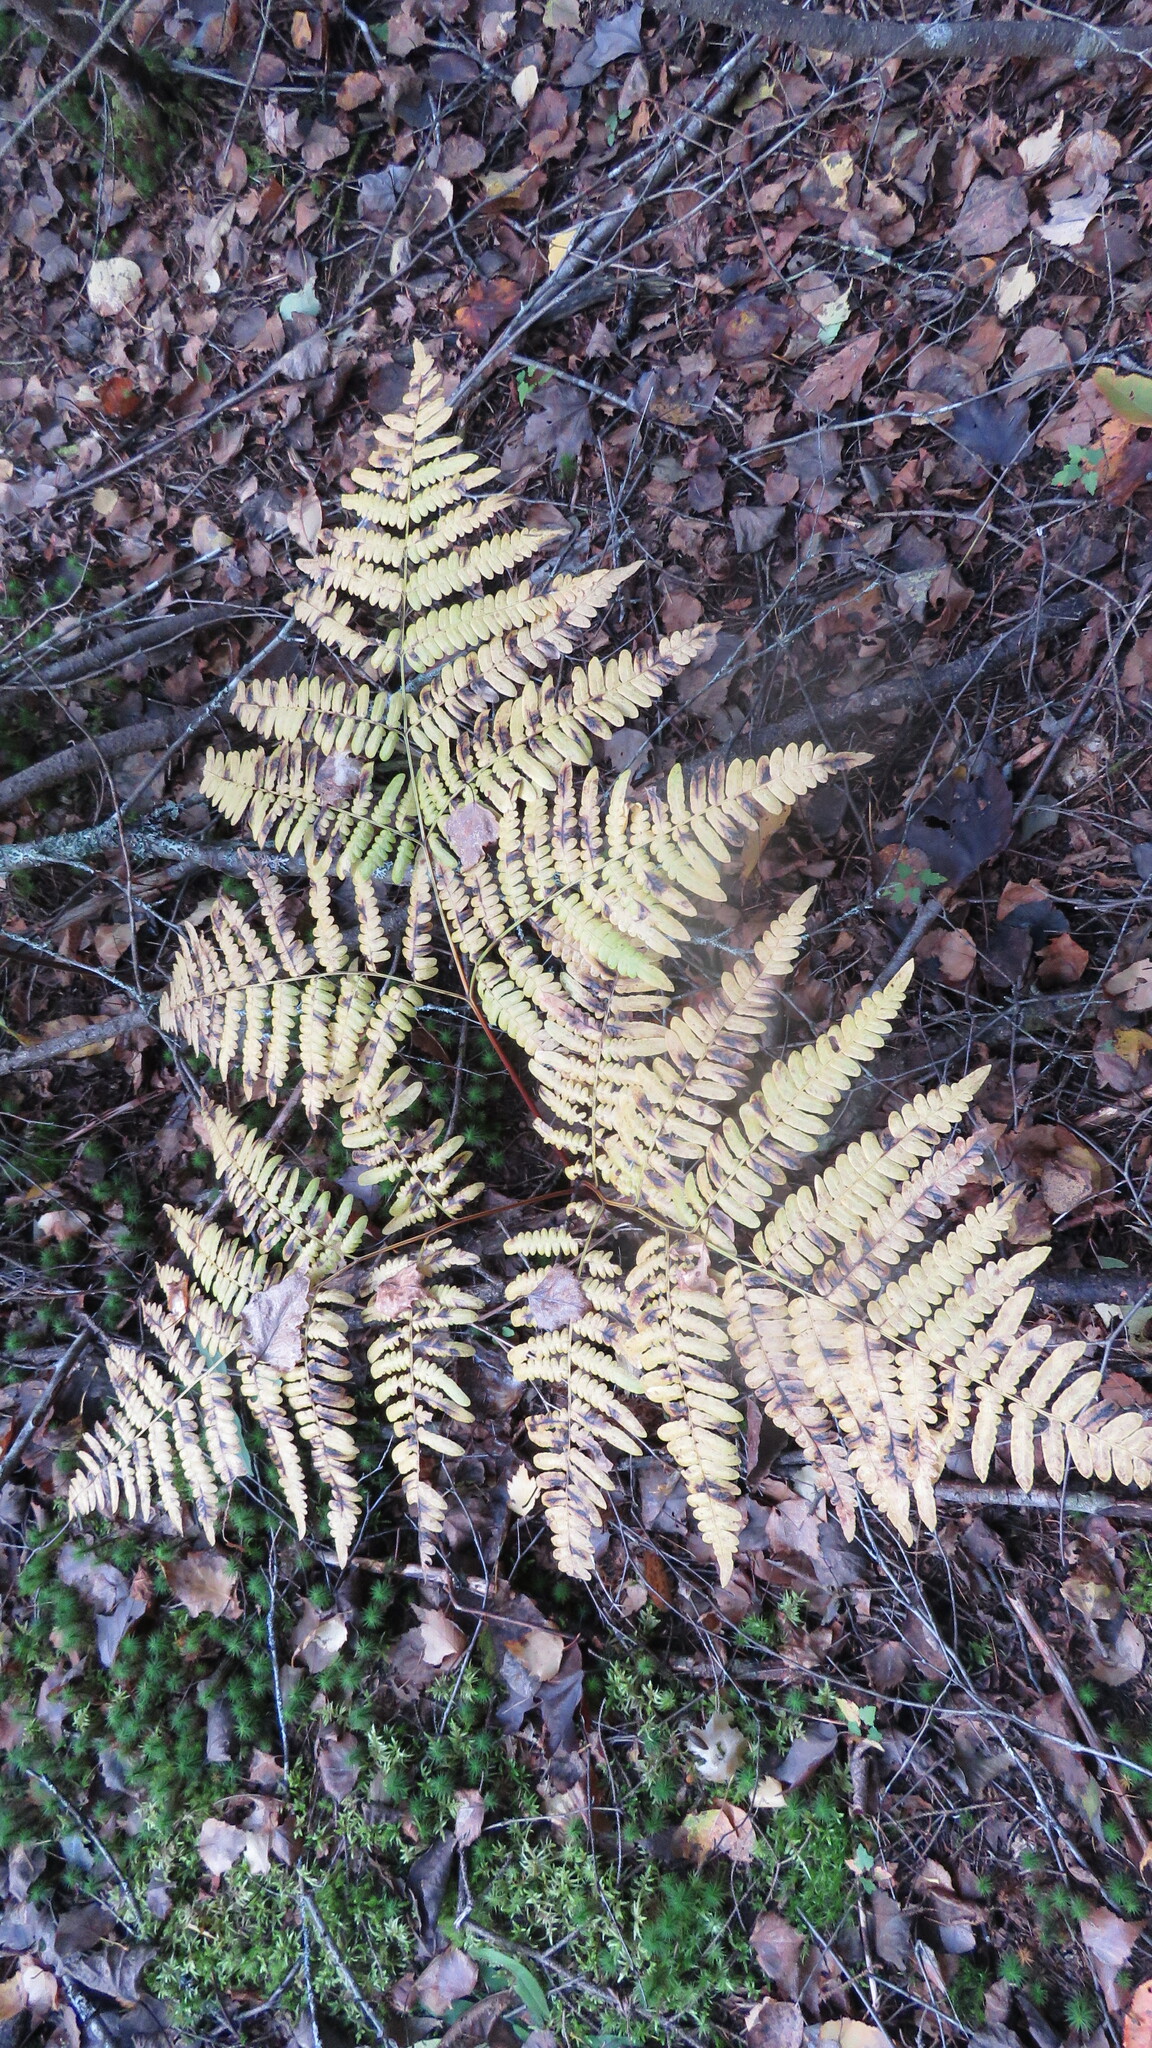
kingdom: Plantae
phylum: Tracheophyta
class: Polypodiopsida
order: Polypodiales
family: Dennstaedtiaceae
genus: Pteridium
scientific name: Pteridium aquilinum
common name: Bracken
